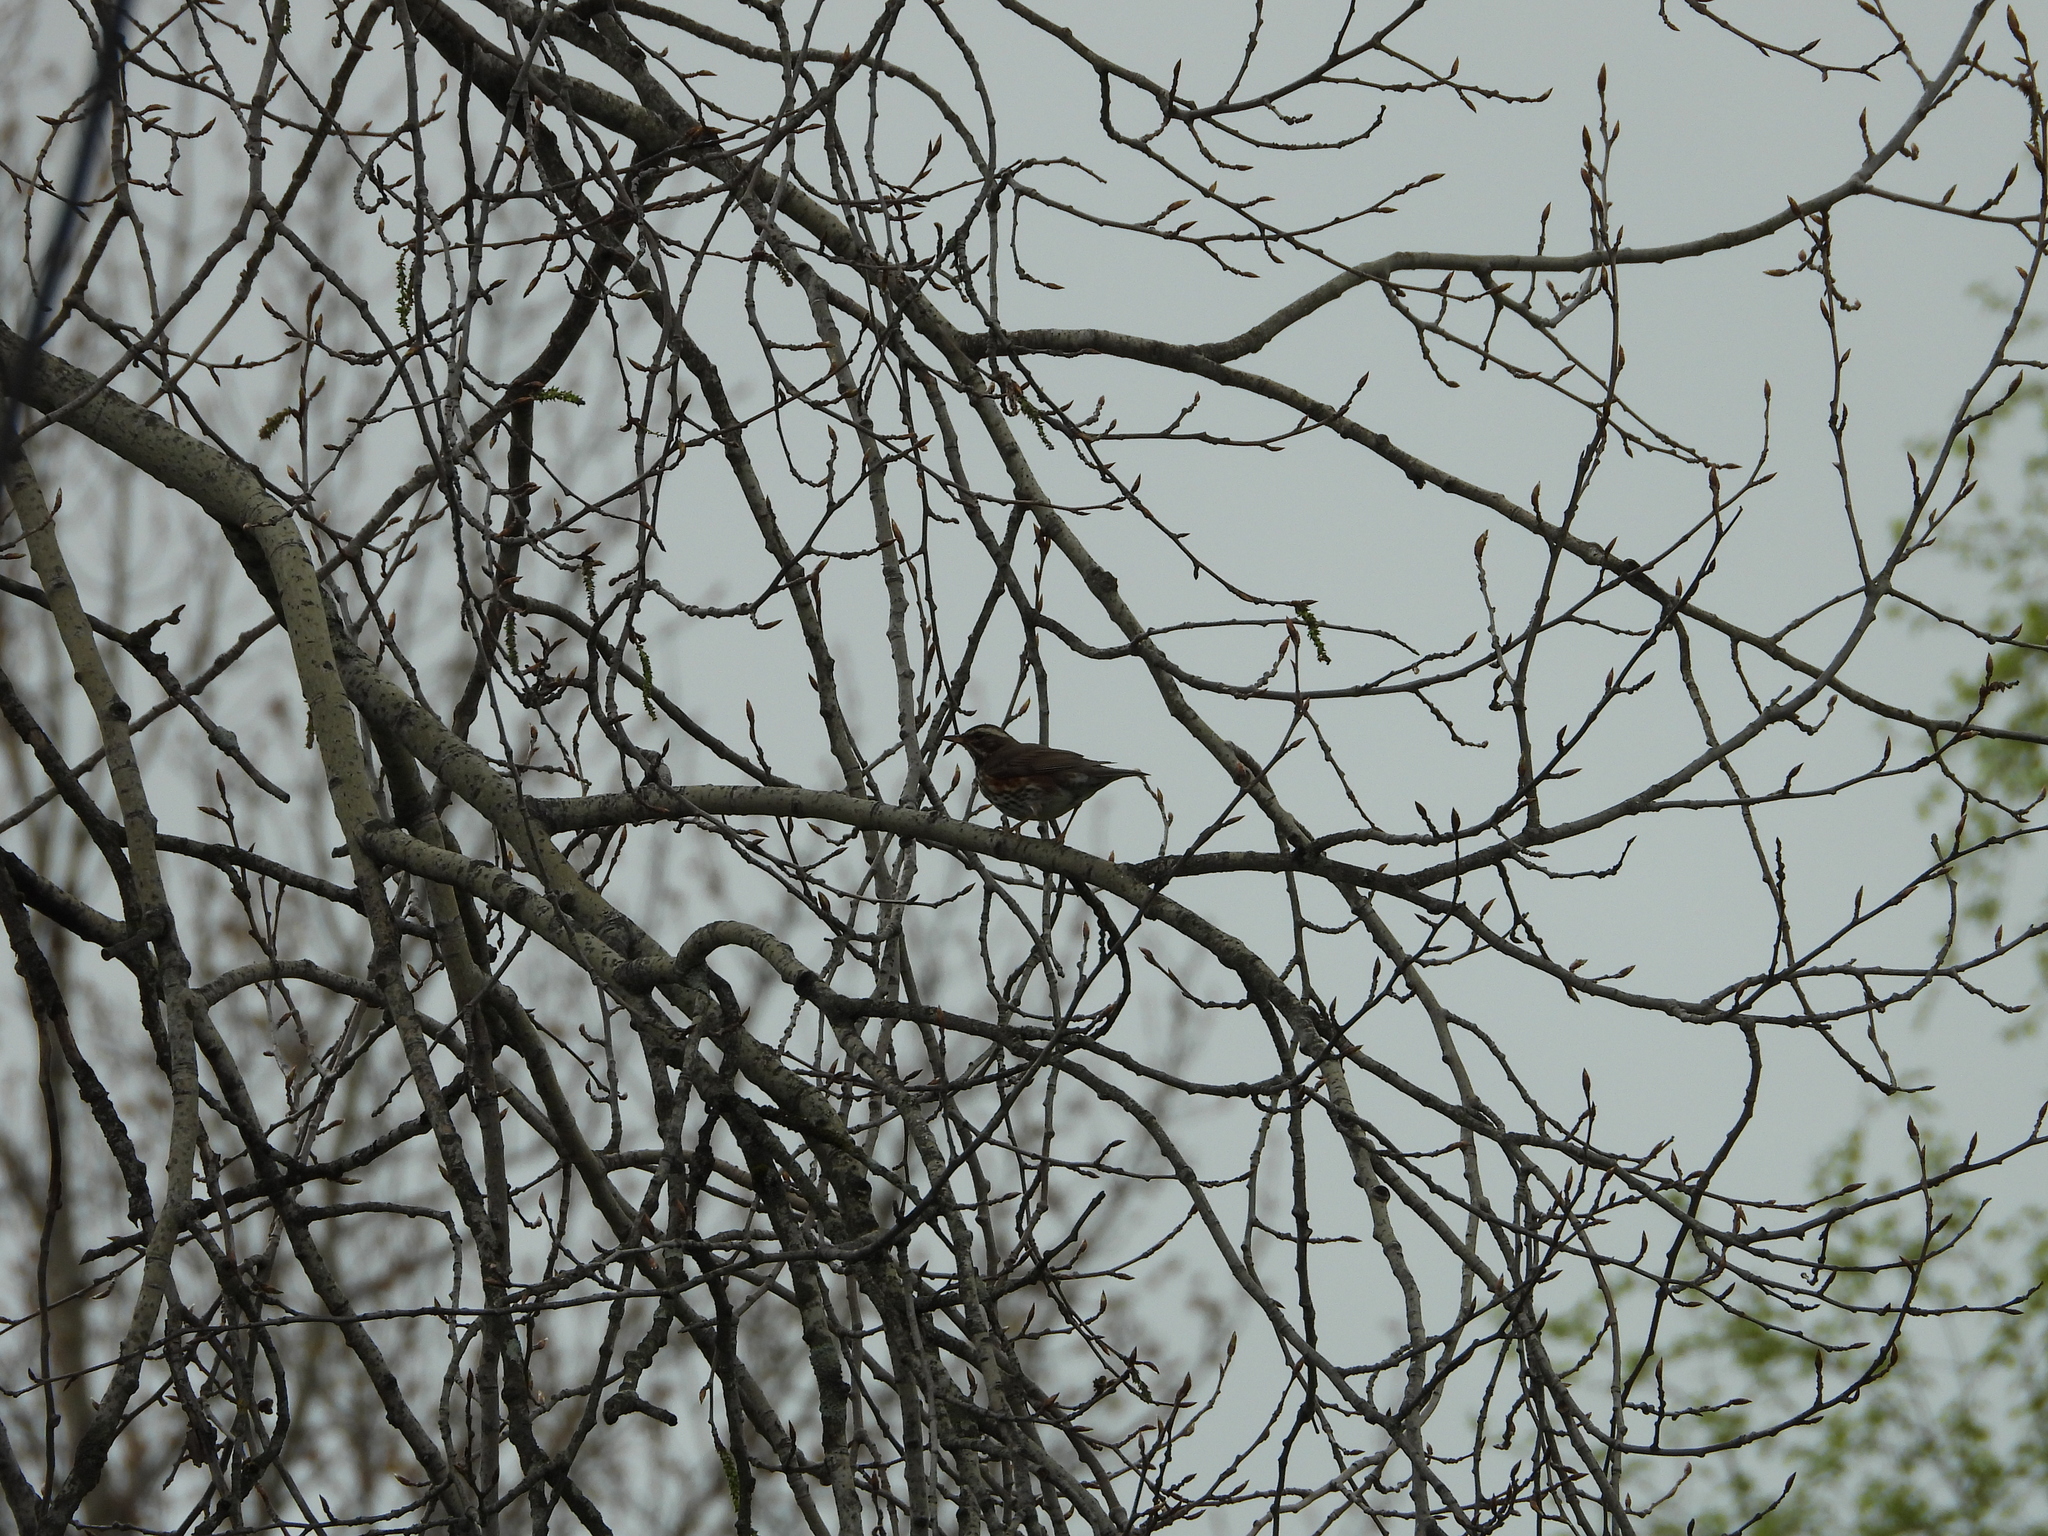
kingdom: Animalia
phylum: Chordata
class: Aves
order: Passeriformes
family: Turdidae
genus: Turdus
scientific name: Turdus iliacus
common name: Redwing
